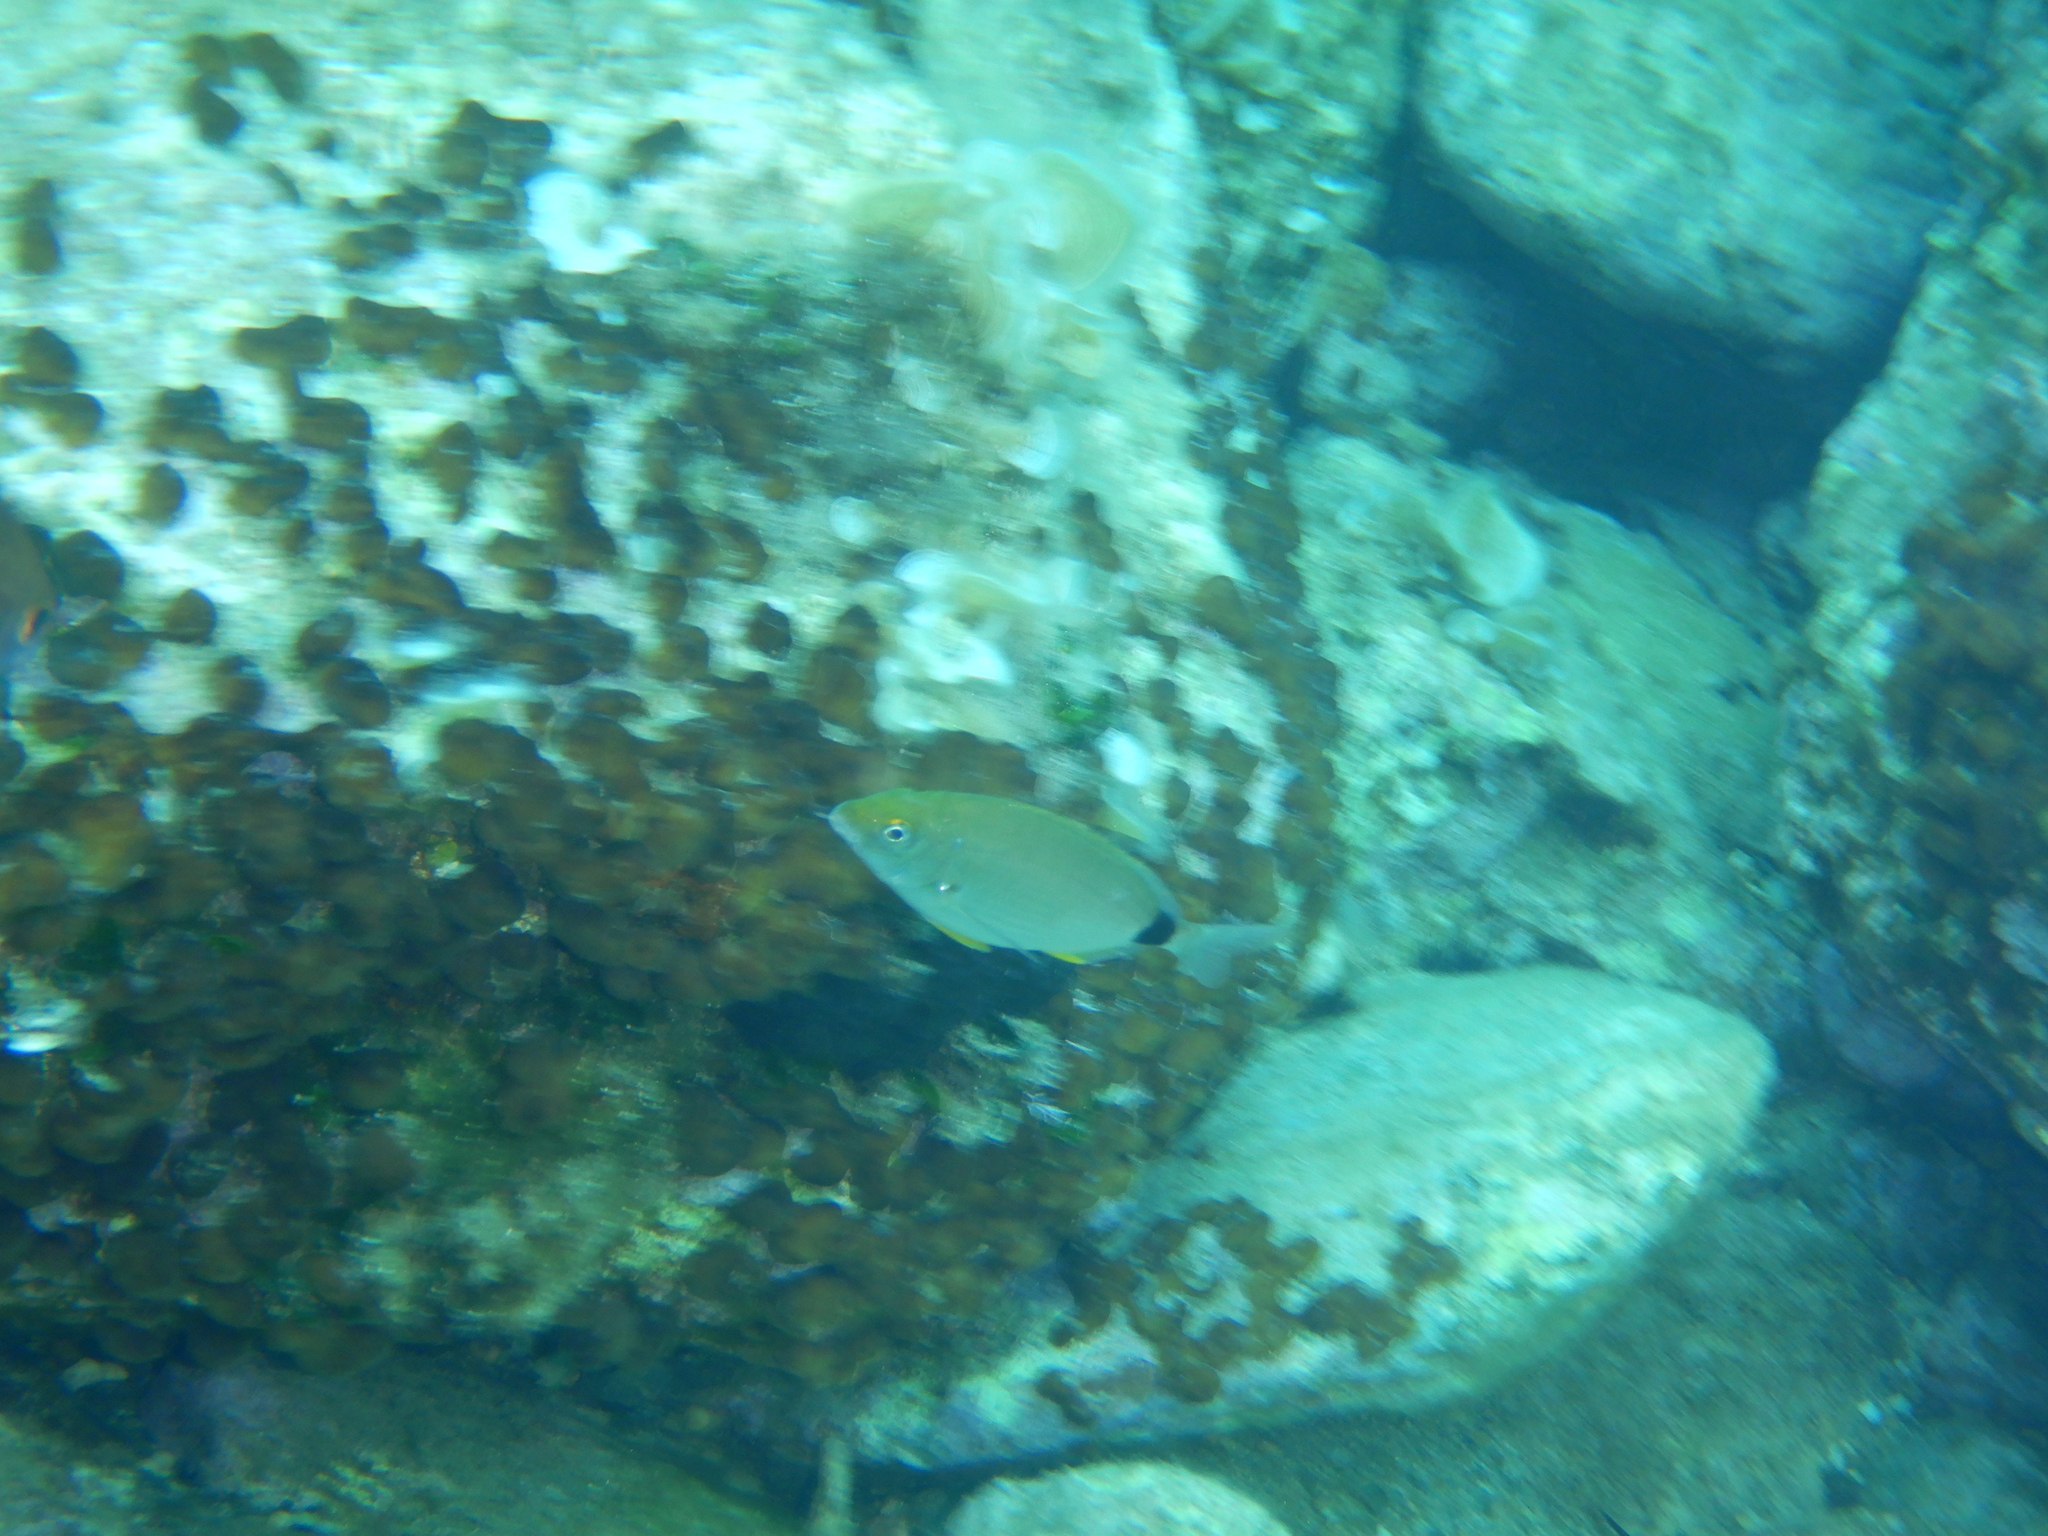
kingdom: Animalia
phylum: Chordata
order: Perciformes
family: Sparidae
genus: Diplodus
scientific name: Diplodus annularis
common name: Annular seabream
